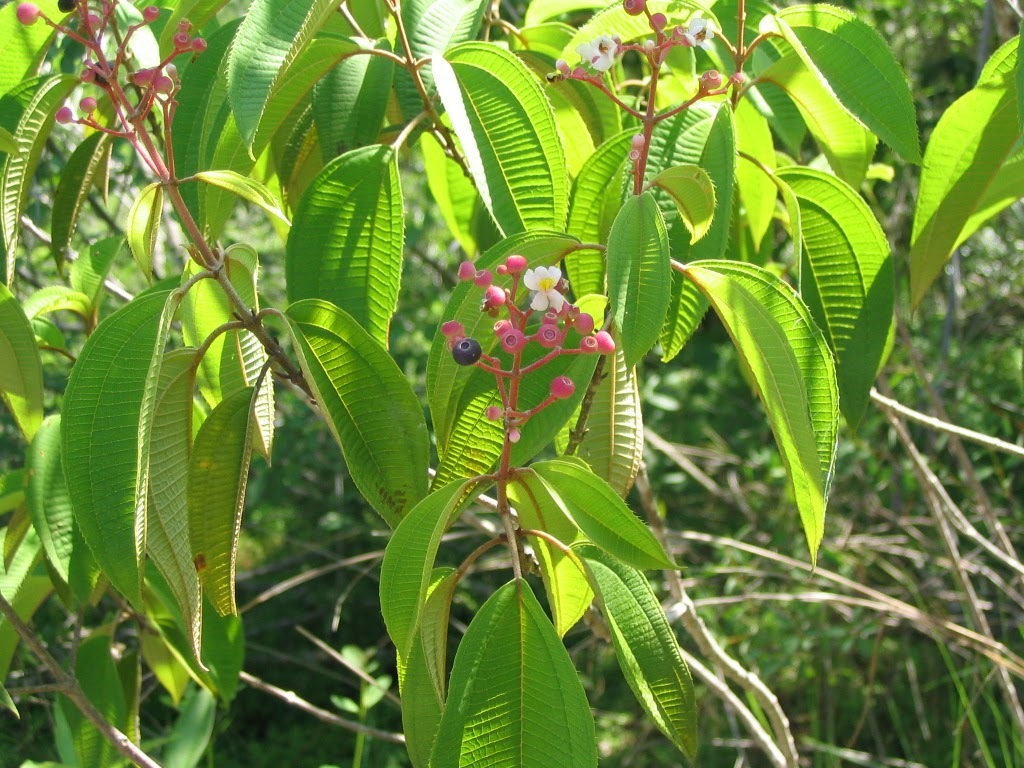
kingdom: Plantae
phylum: Tracheophyta
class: Magnoliopsida
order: Myrtales
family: Melastomataceae
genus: Miconia
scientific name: Miconia xalapensis
